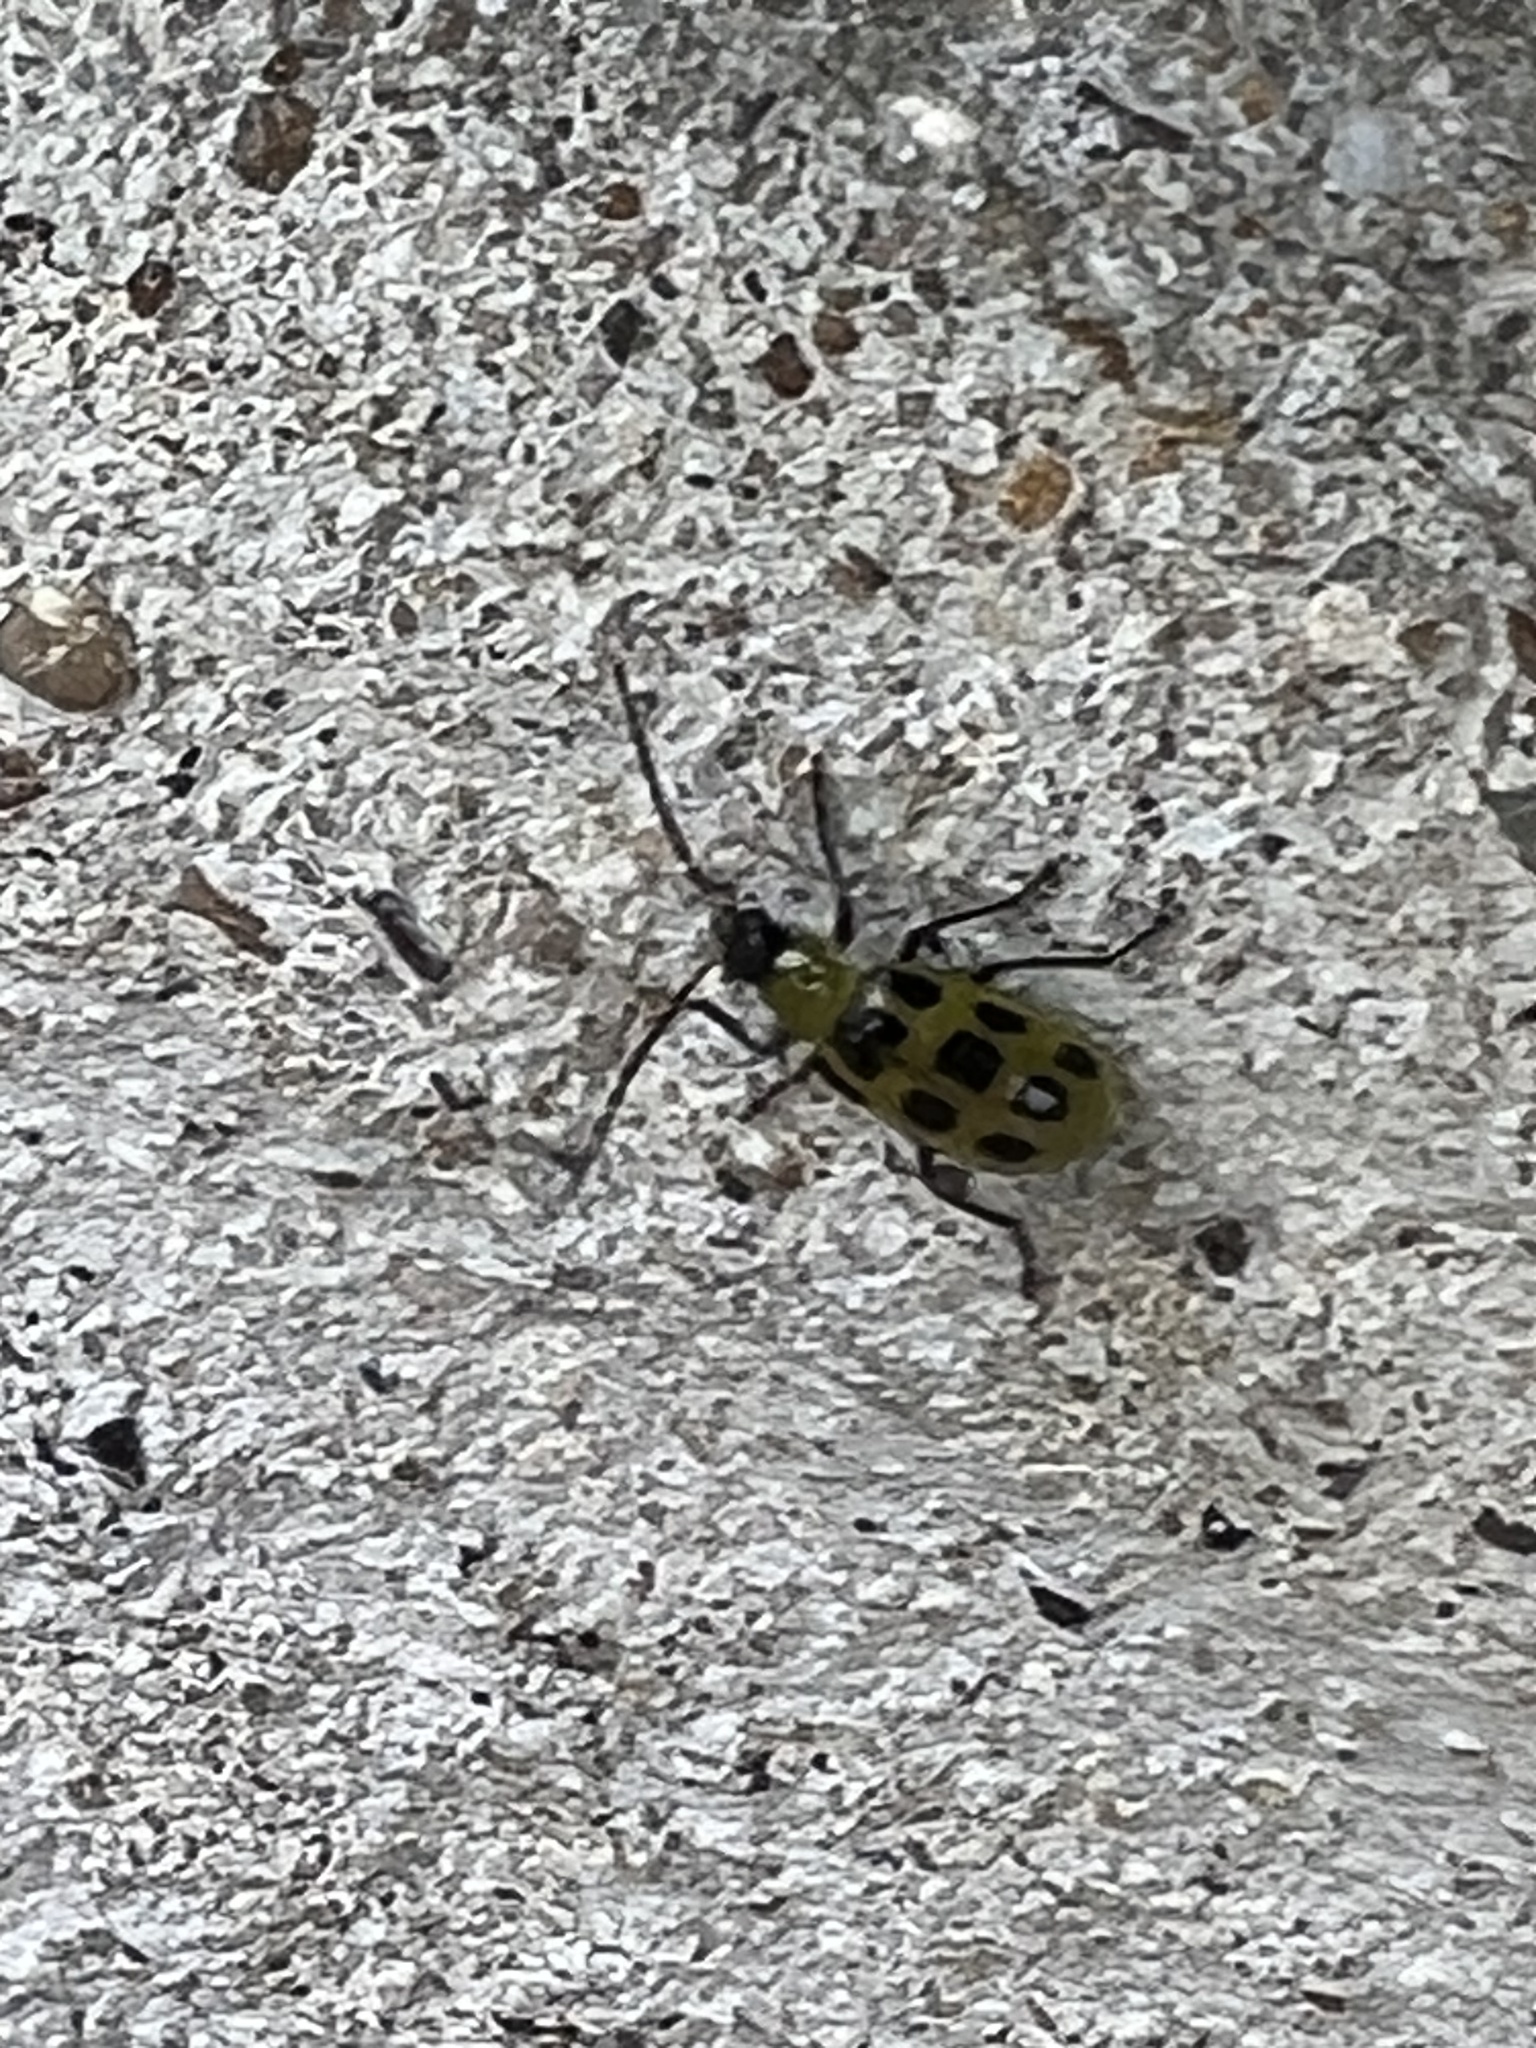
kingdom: Animalia
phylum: Arthropoda
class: Insecta
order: Coleoptera
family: Chrysomelidae
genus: Diabrotica
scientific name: Diabrotica undecimpunctata
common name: Spotted cucumber beetle
